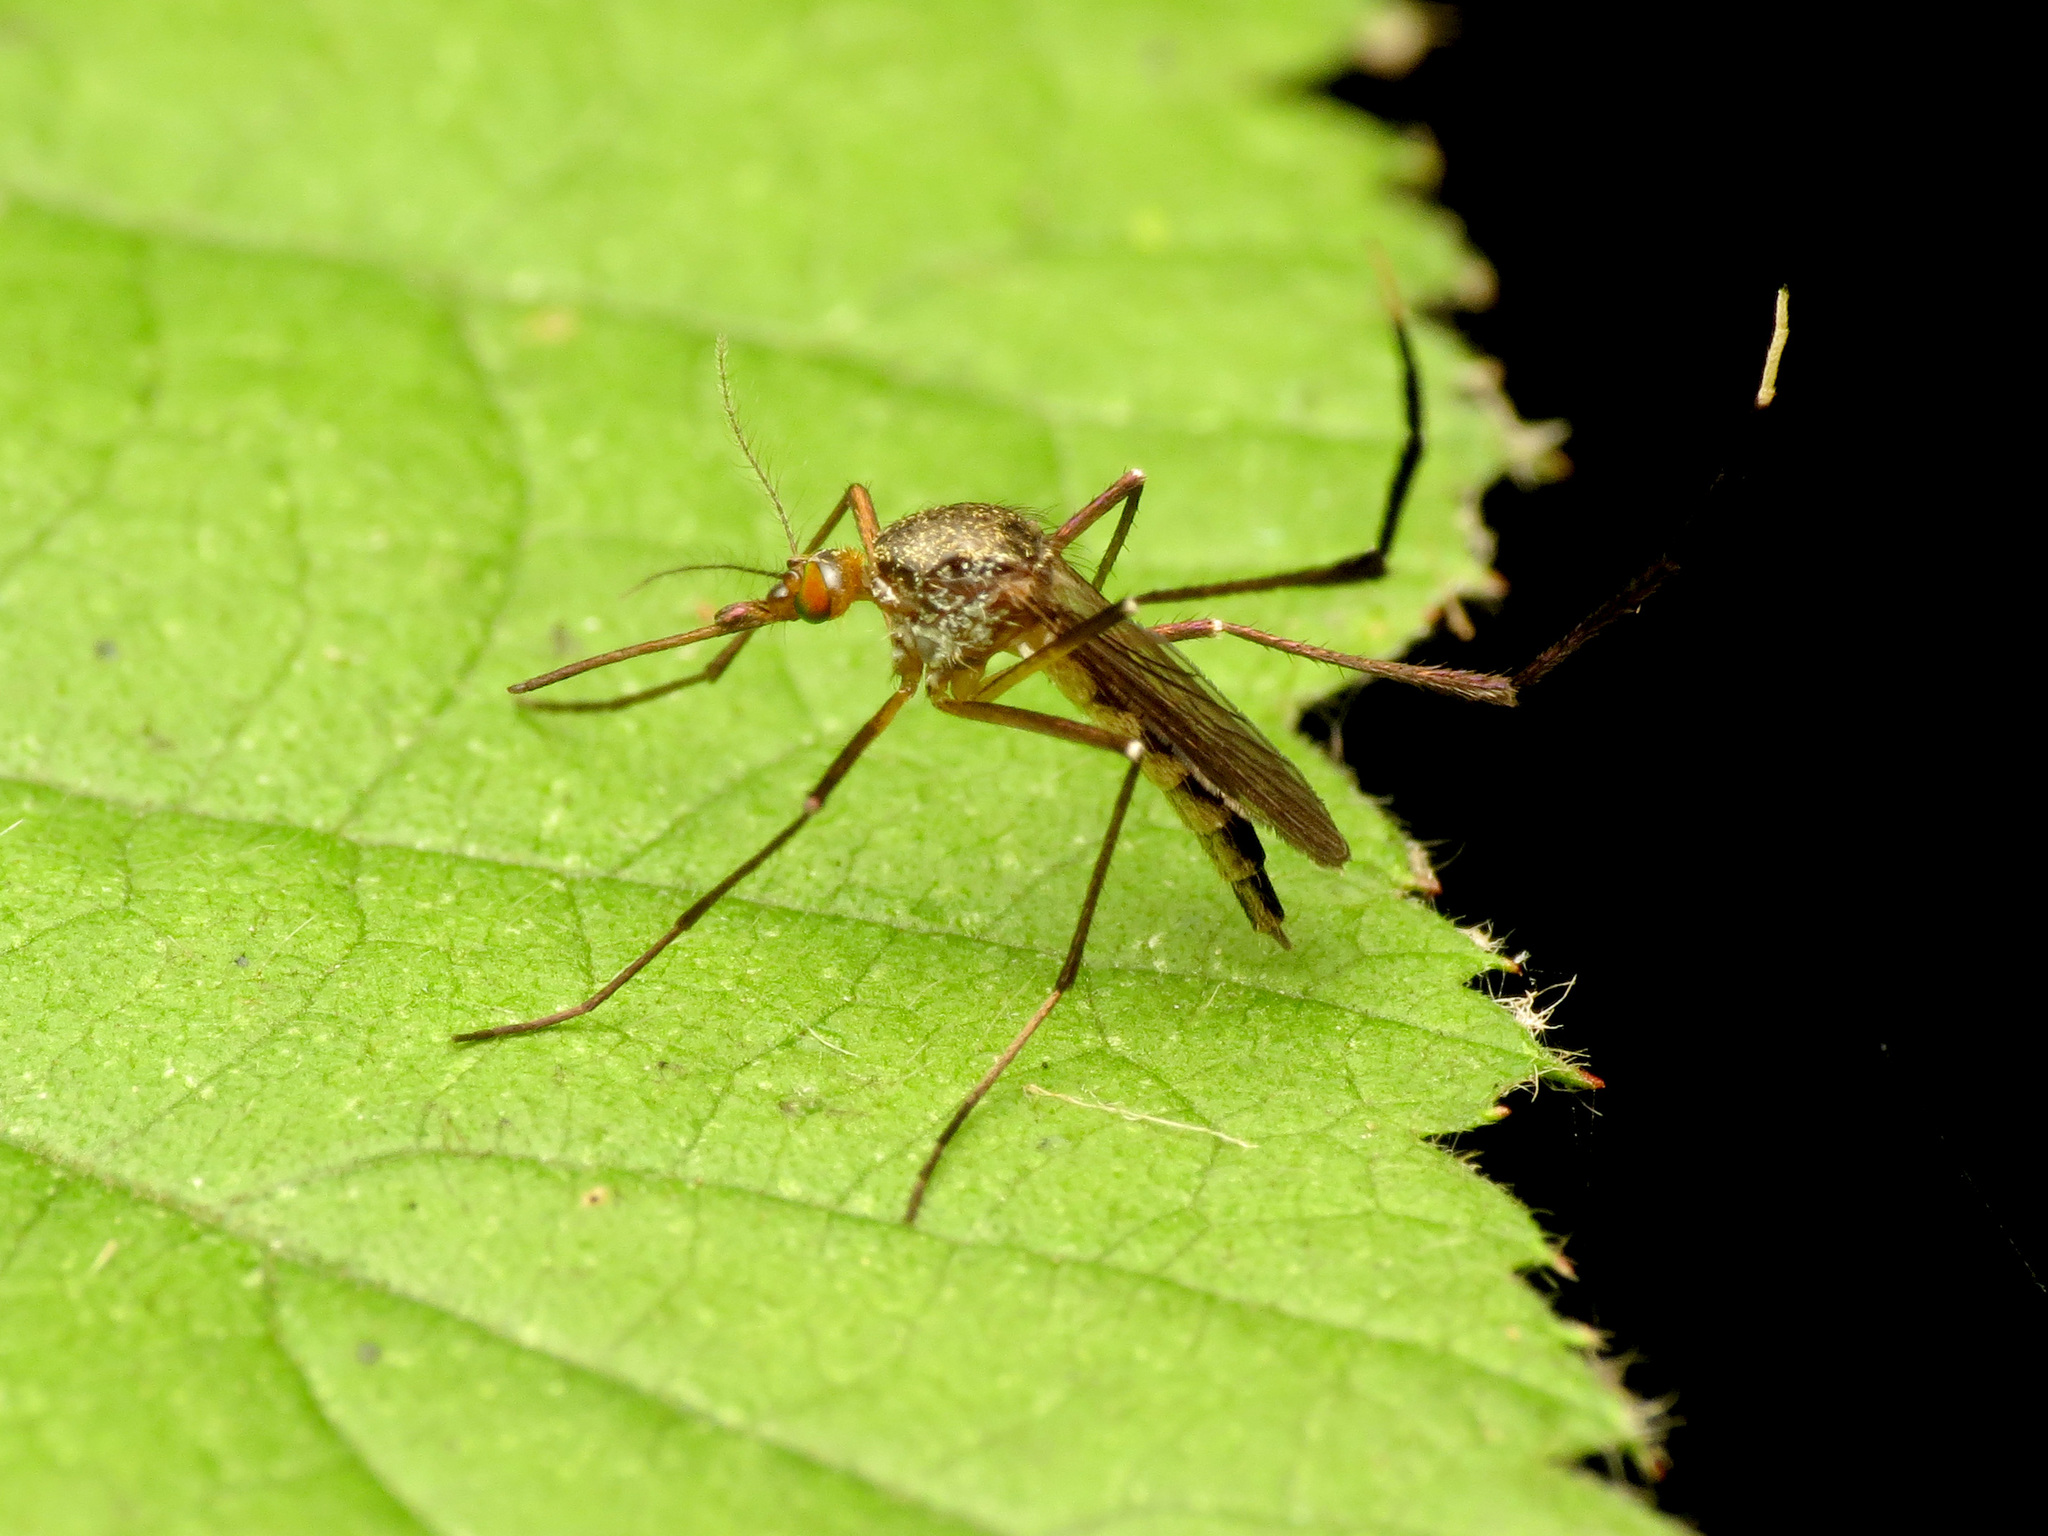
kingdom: Animalia
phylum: Arthropoda
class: Insecta
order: Diptera
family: Culicidae
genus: Psorophora
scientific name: Psorophora ferox
